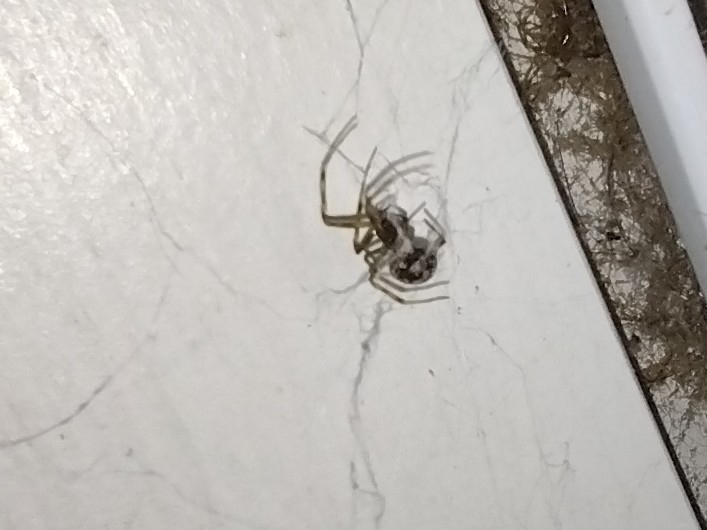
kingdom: Animalia
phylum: Arthropoda
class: Arachnida
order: Araneae
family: Theridiidae
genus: Steatoda
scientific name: Steatoda triangulosa
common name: Triangulate bud spider
